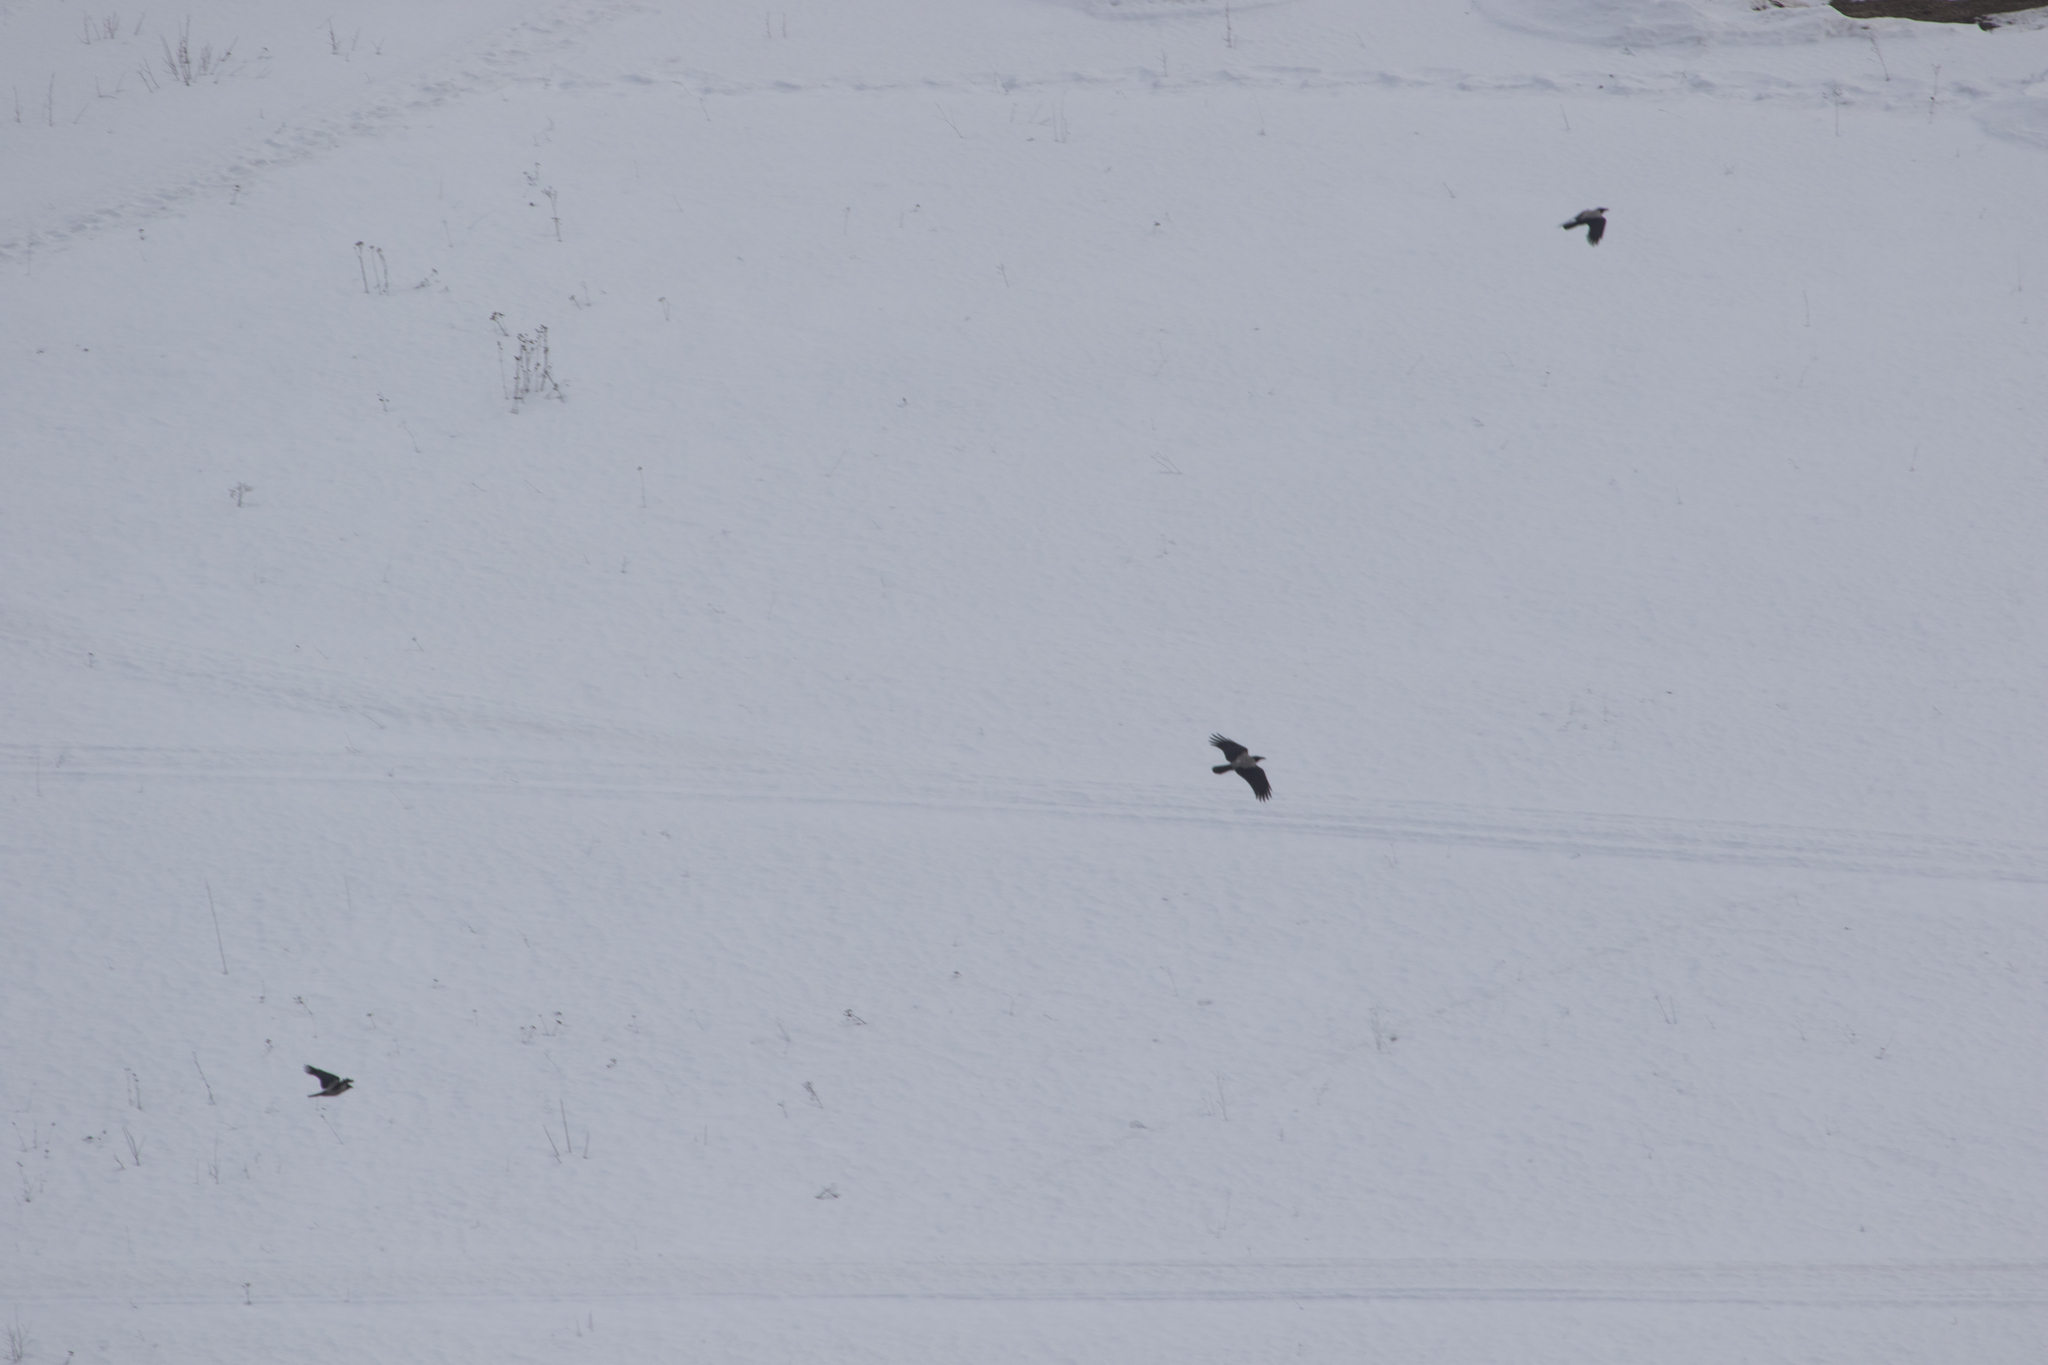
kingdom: Animalia
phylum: Chordata
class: Aves
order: Passeriformes
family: Corvidae
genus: Corvus
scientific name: Corvus cornix
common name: Hooded crow
